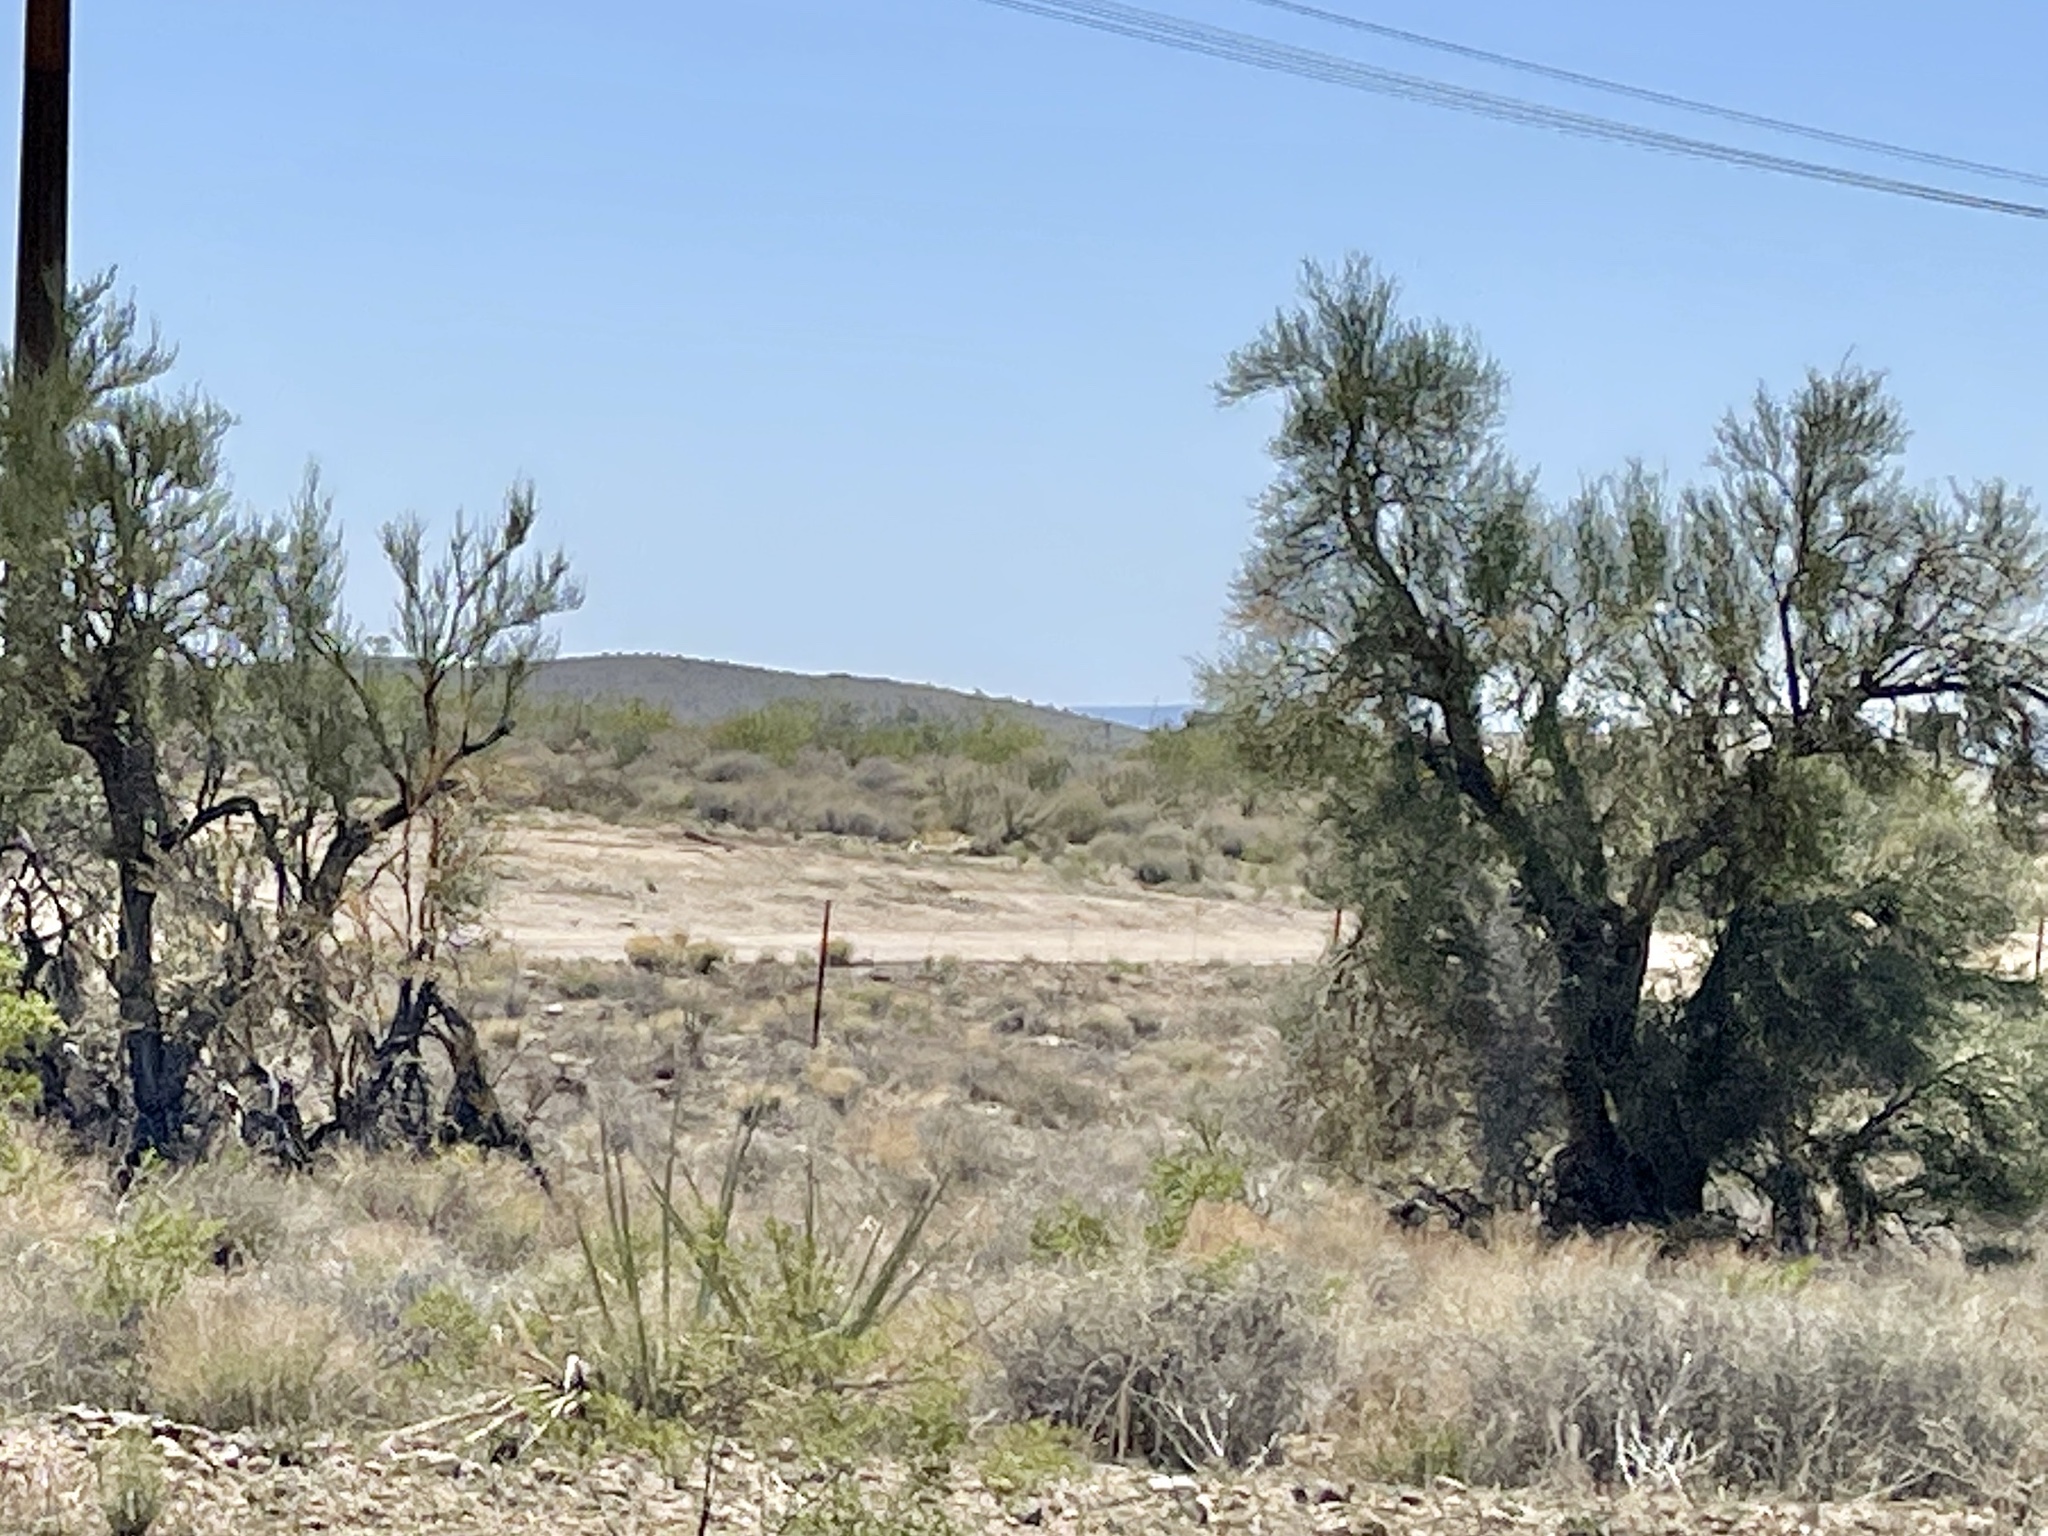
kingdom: Plantae
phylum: Tracheophyta
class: Magnoliopsida
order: Celastrales
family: Celastraceae
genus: Canotia
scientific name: Canotia holacantha
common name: Crucifixion thorns
